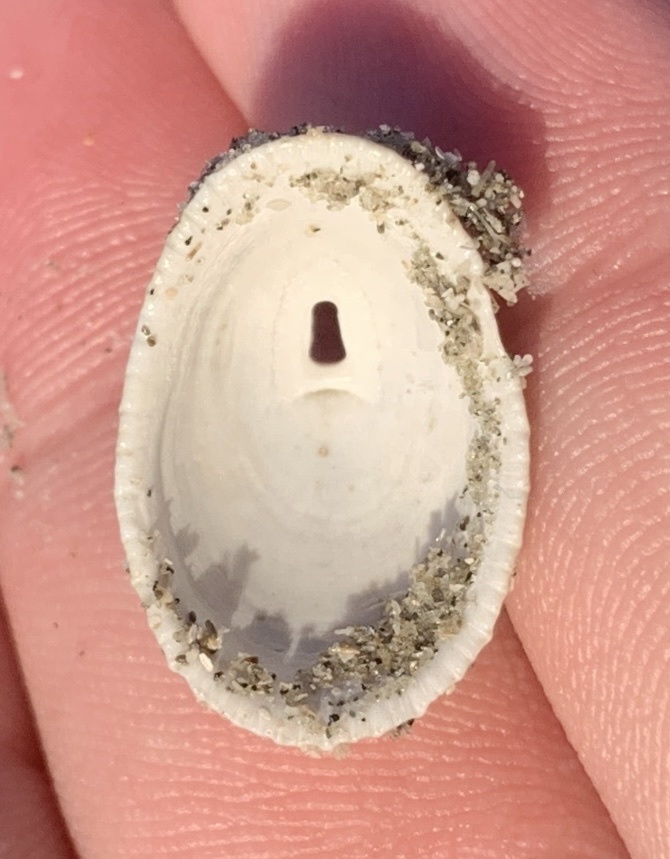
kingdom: Animalia
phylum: Mollusca
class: Gastropoda
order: Lepetellida
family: Fissurellidae
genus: Diodora
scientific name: Diodora cayenensis
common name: Cayenne keyhole limpet
